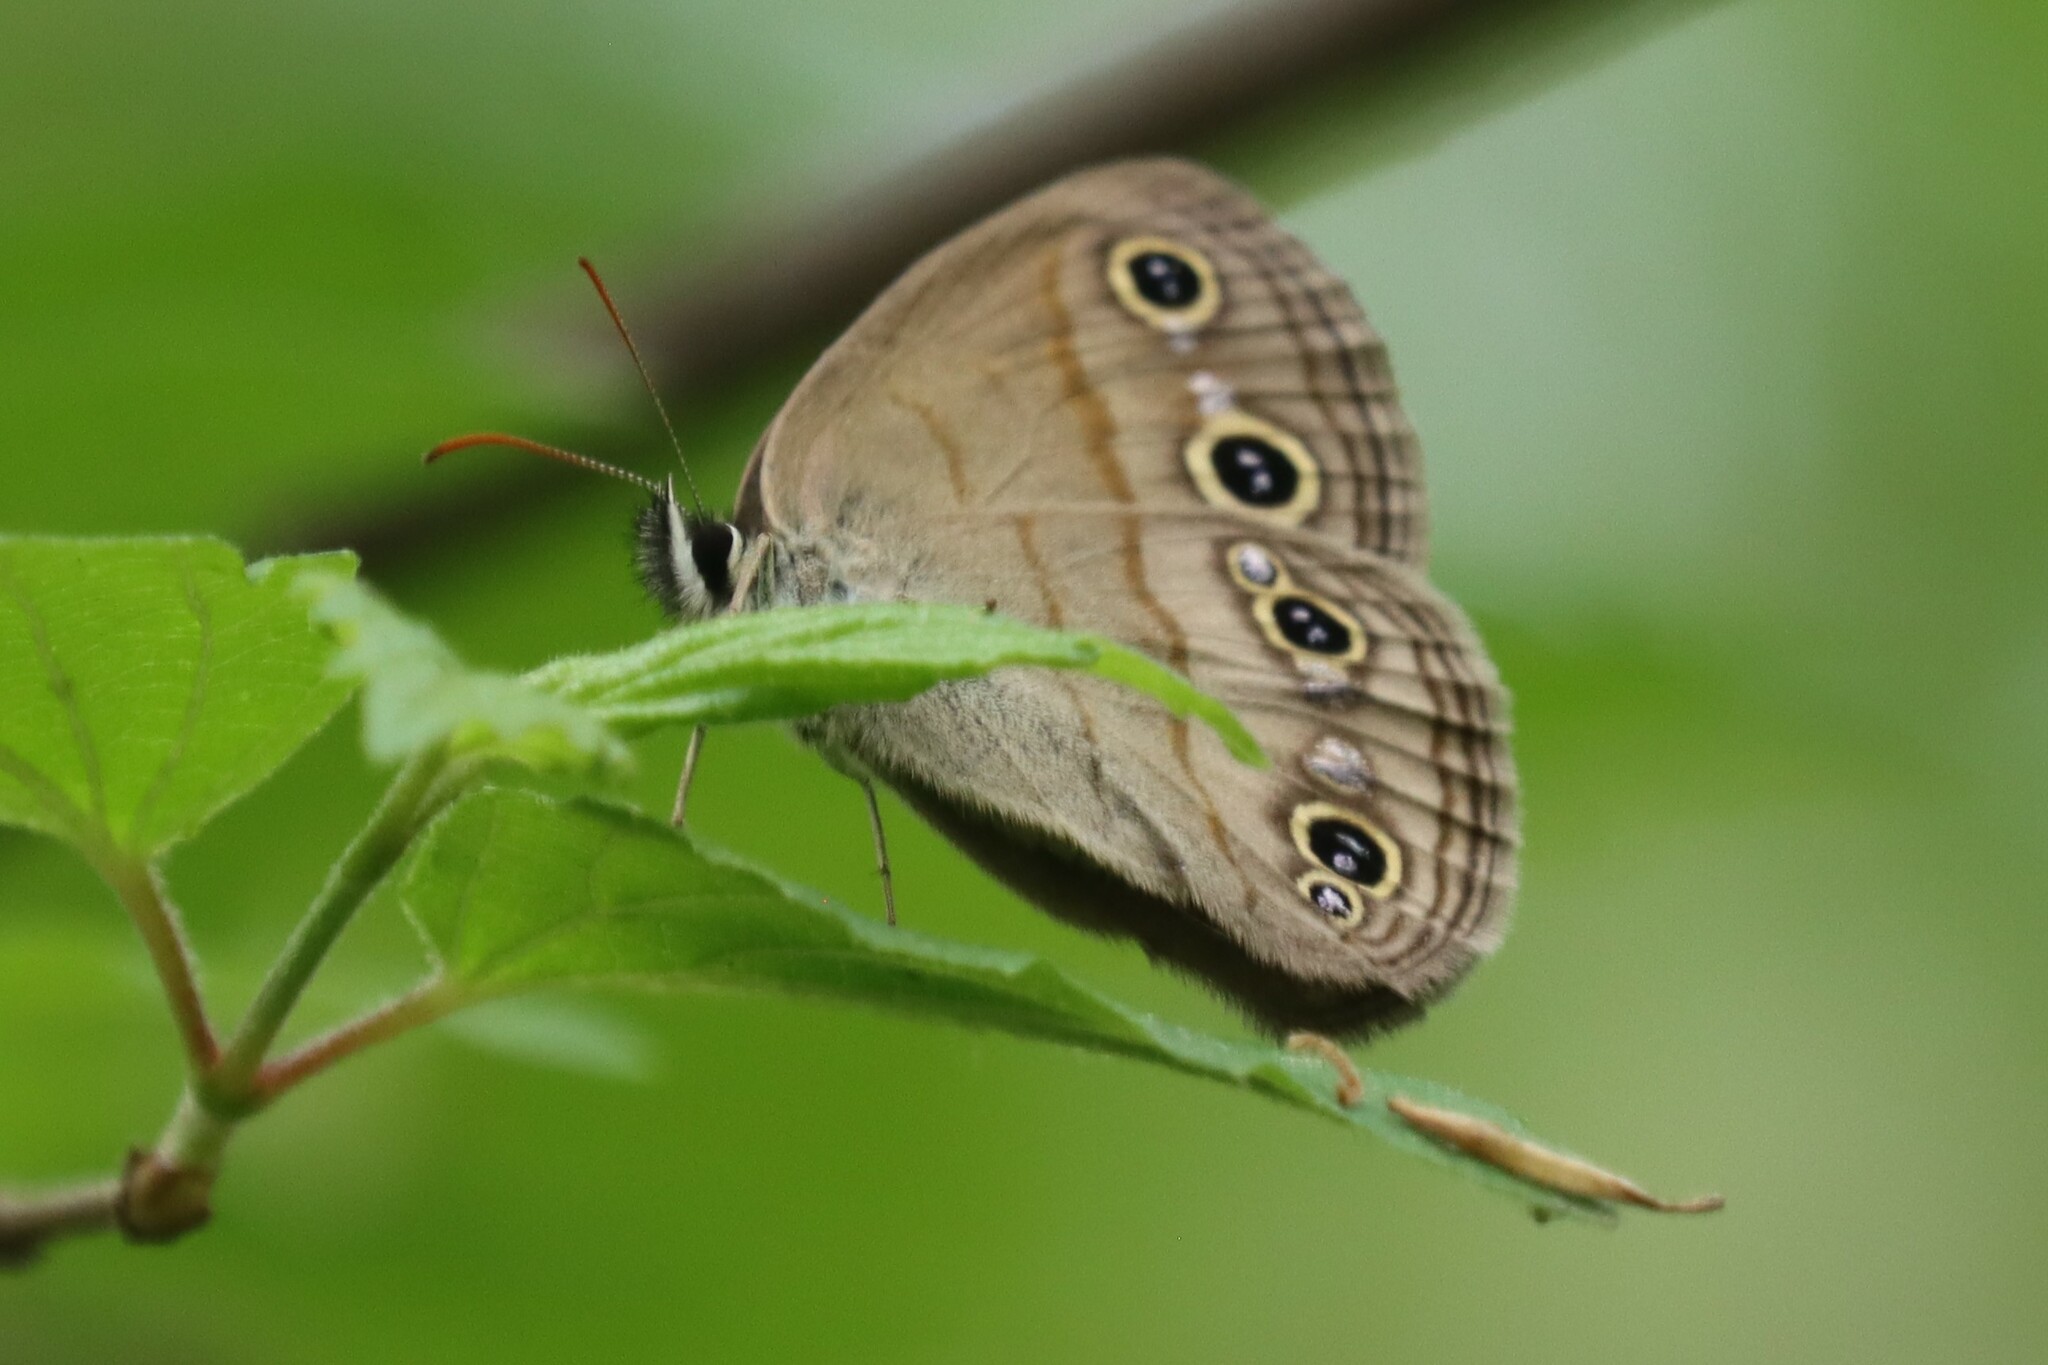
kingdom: Animalia
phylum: Arthropoda
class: Insecta
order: Lepidoptera
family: Nymphalidae
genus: Euptychia
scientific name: Euptychia cymela
